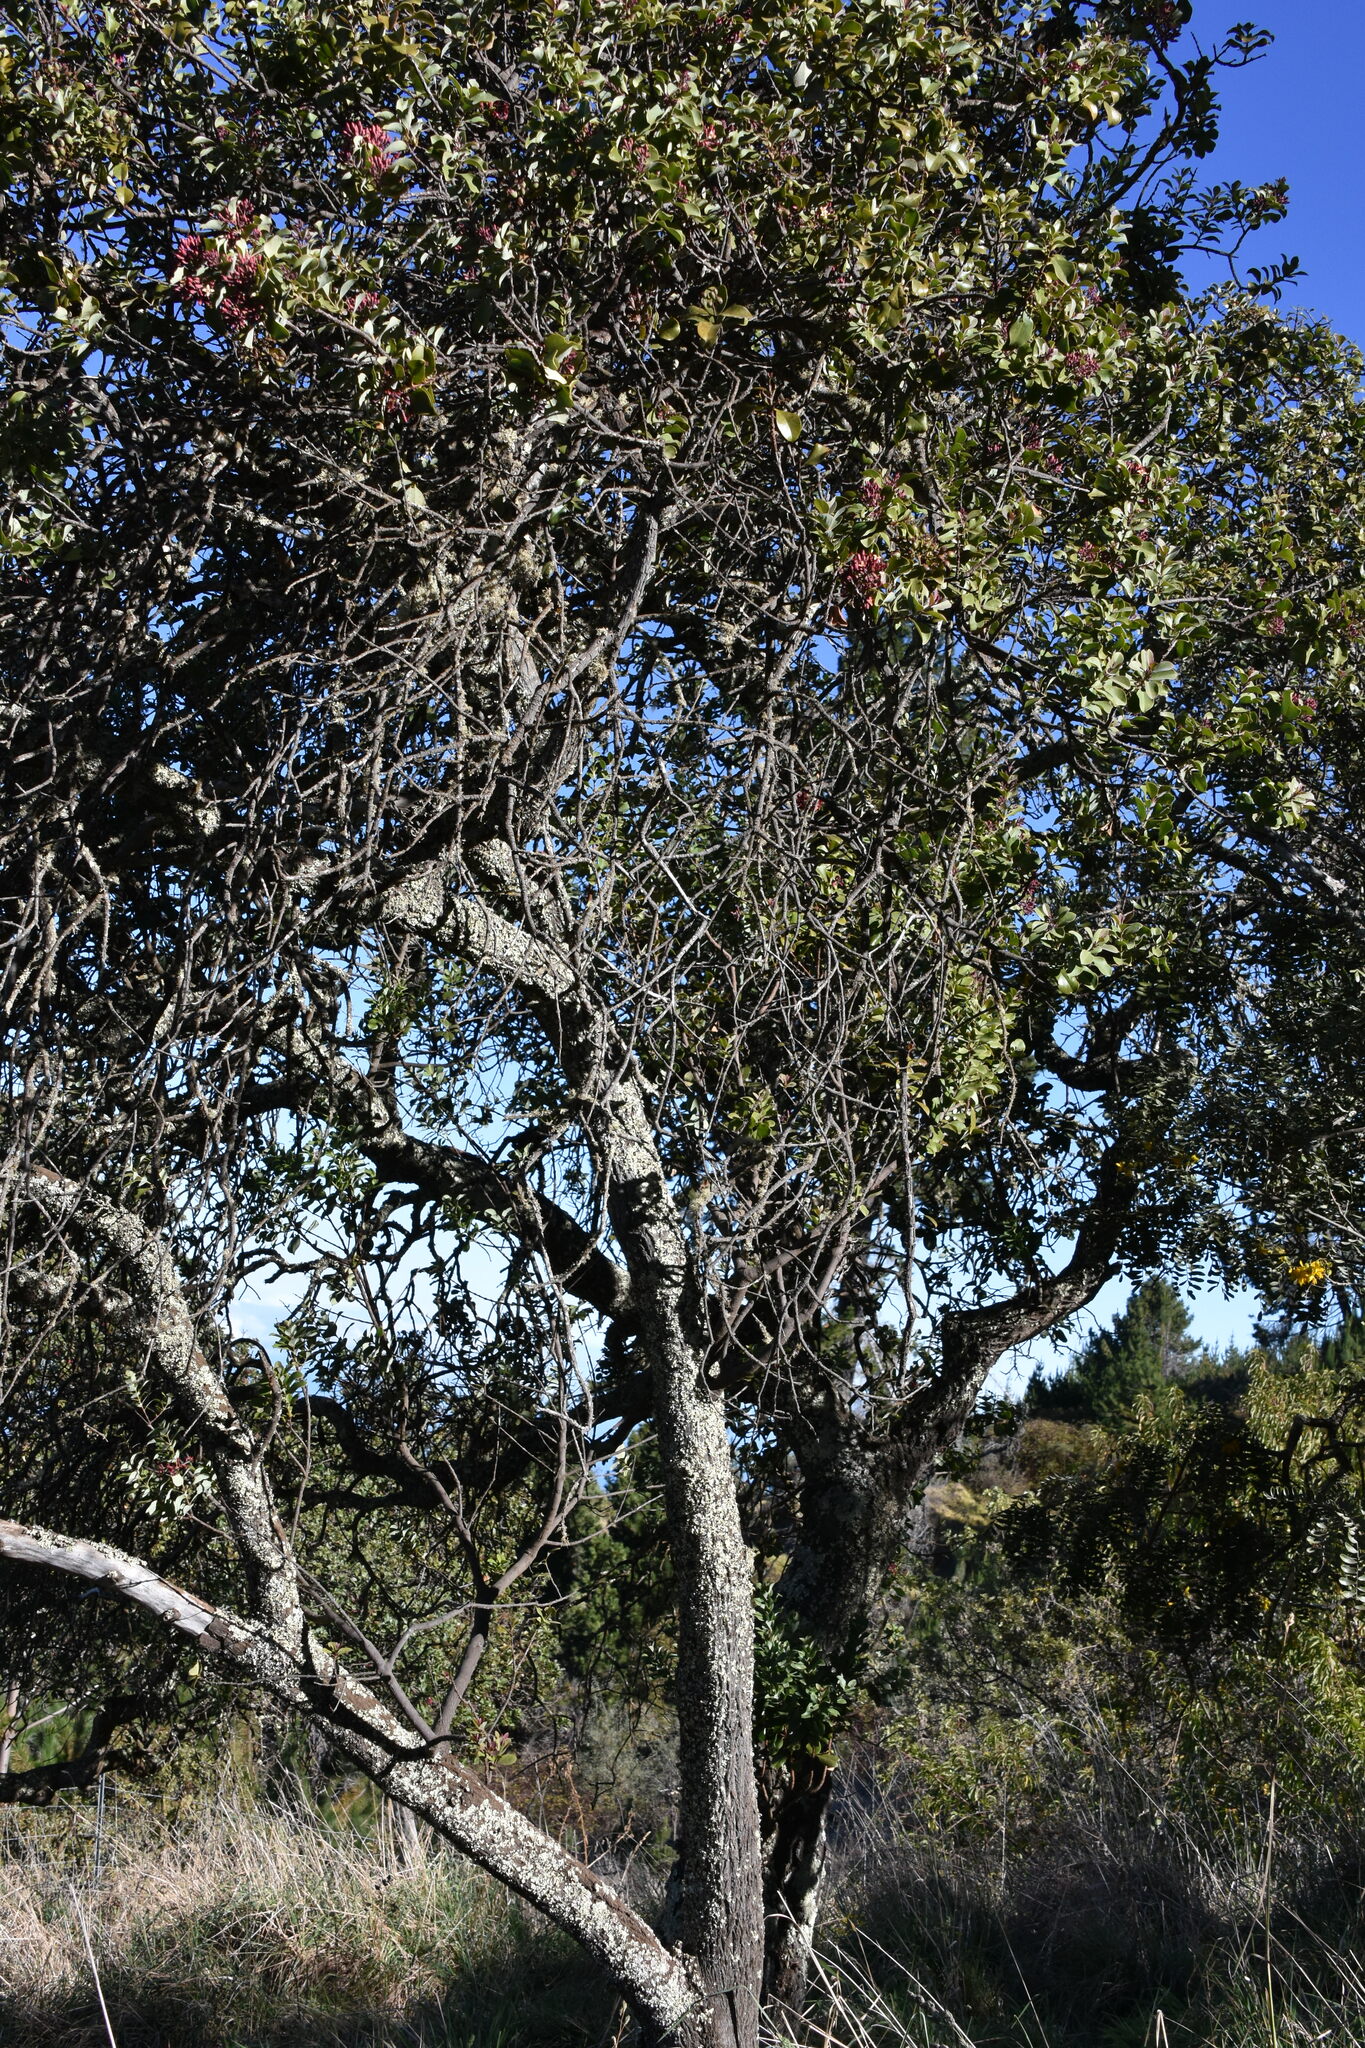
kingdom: Plantae
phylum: Tracheophyta
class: Magnoliopsida
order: Santalales
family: Santalaceae
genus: Santalum
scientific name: Santalum haleakalae
